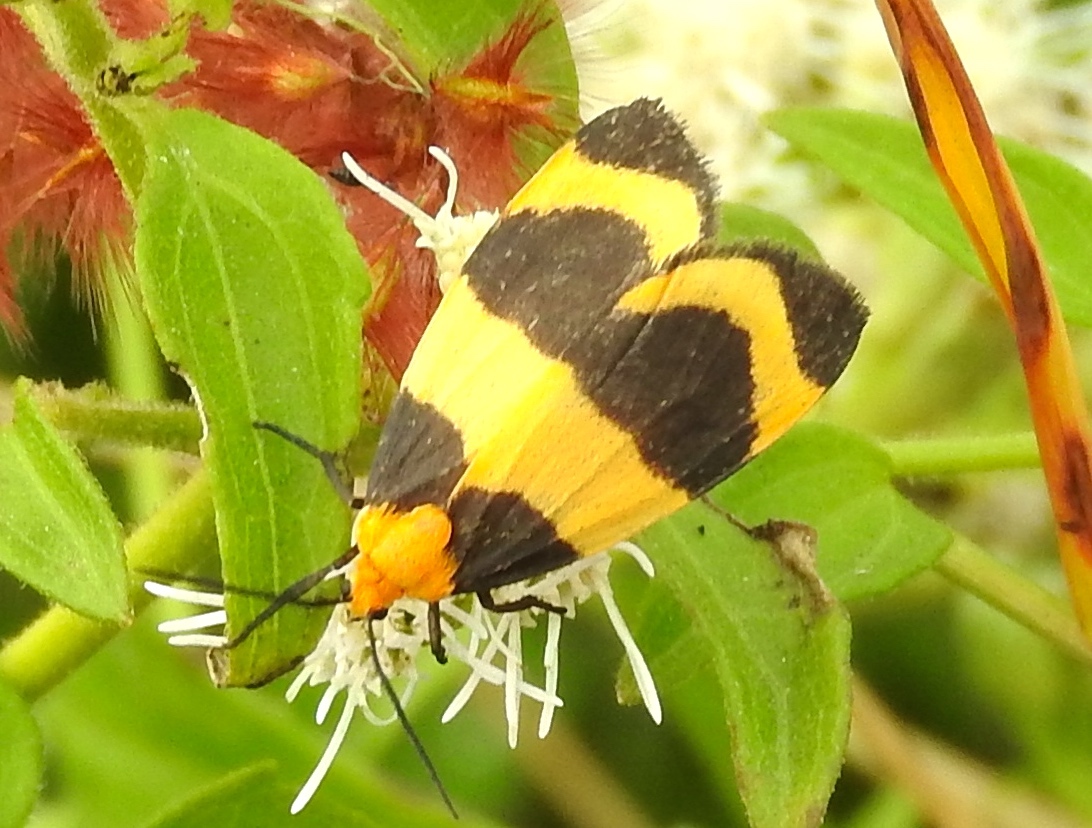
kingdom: Animalia
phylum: Arthropoda
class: Insecta
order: Lepidoptera
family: Erebidae
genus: Eudesmia
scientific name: Eudesmia menea
